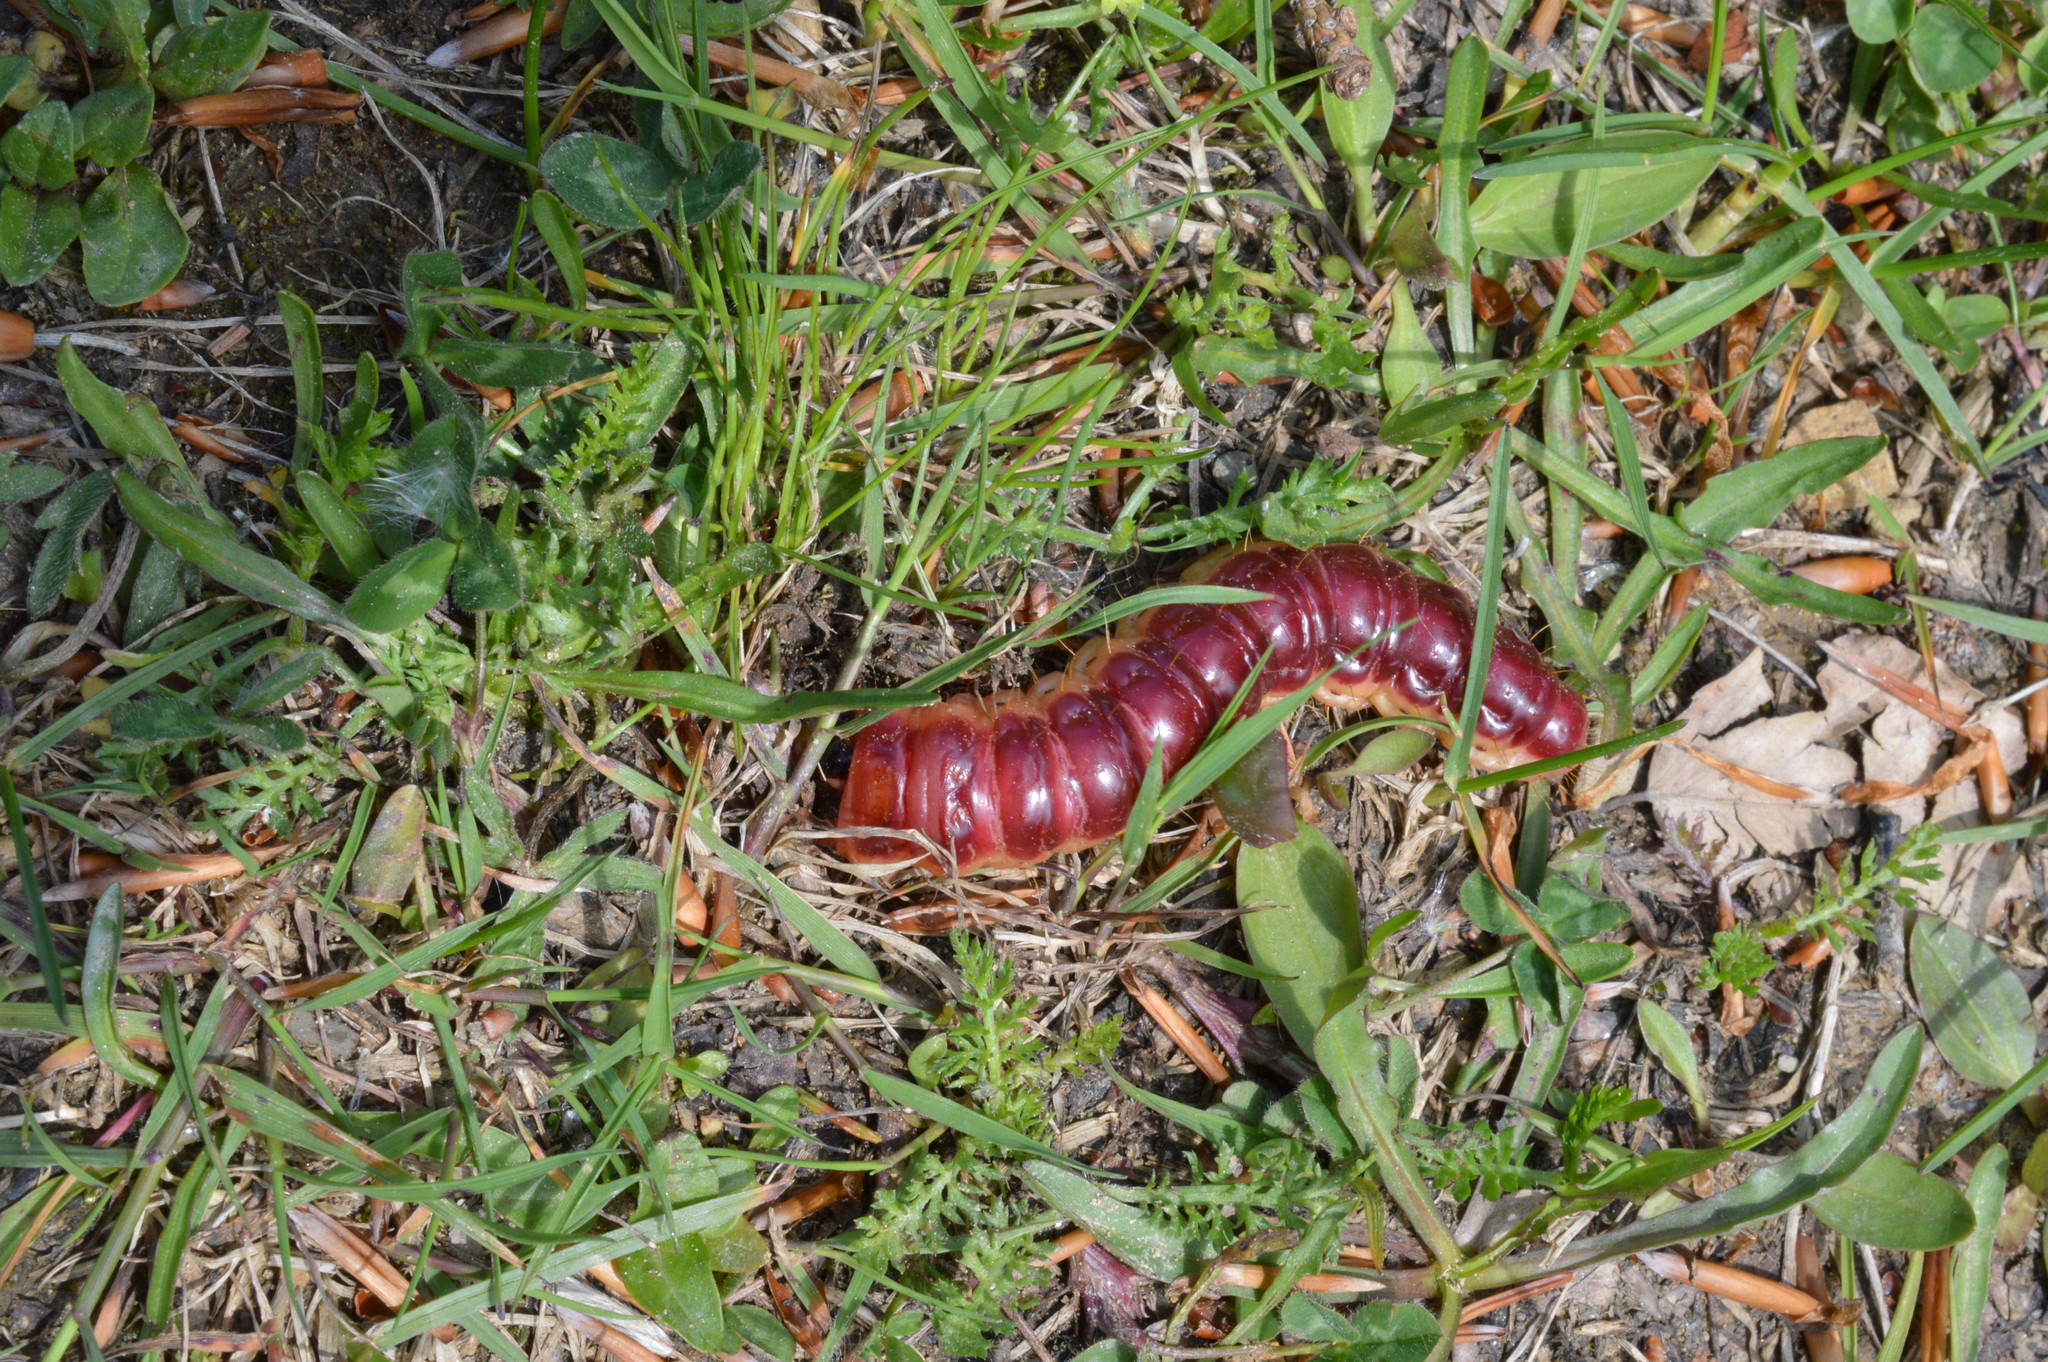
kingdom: Animalia
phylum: Arthropoda
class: Insecta
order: Lepidoptera
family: Cossidae
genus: Cossus
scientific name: Cossus cossus
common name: Goat moth
